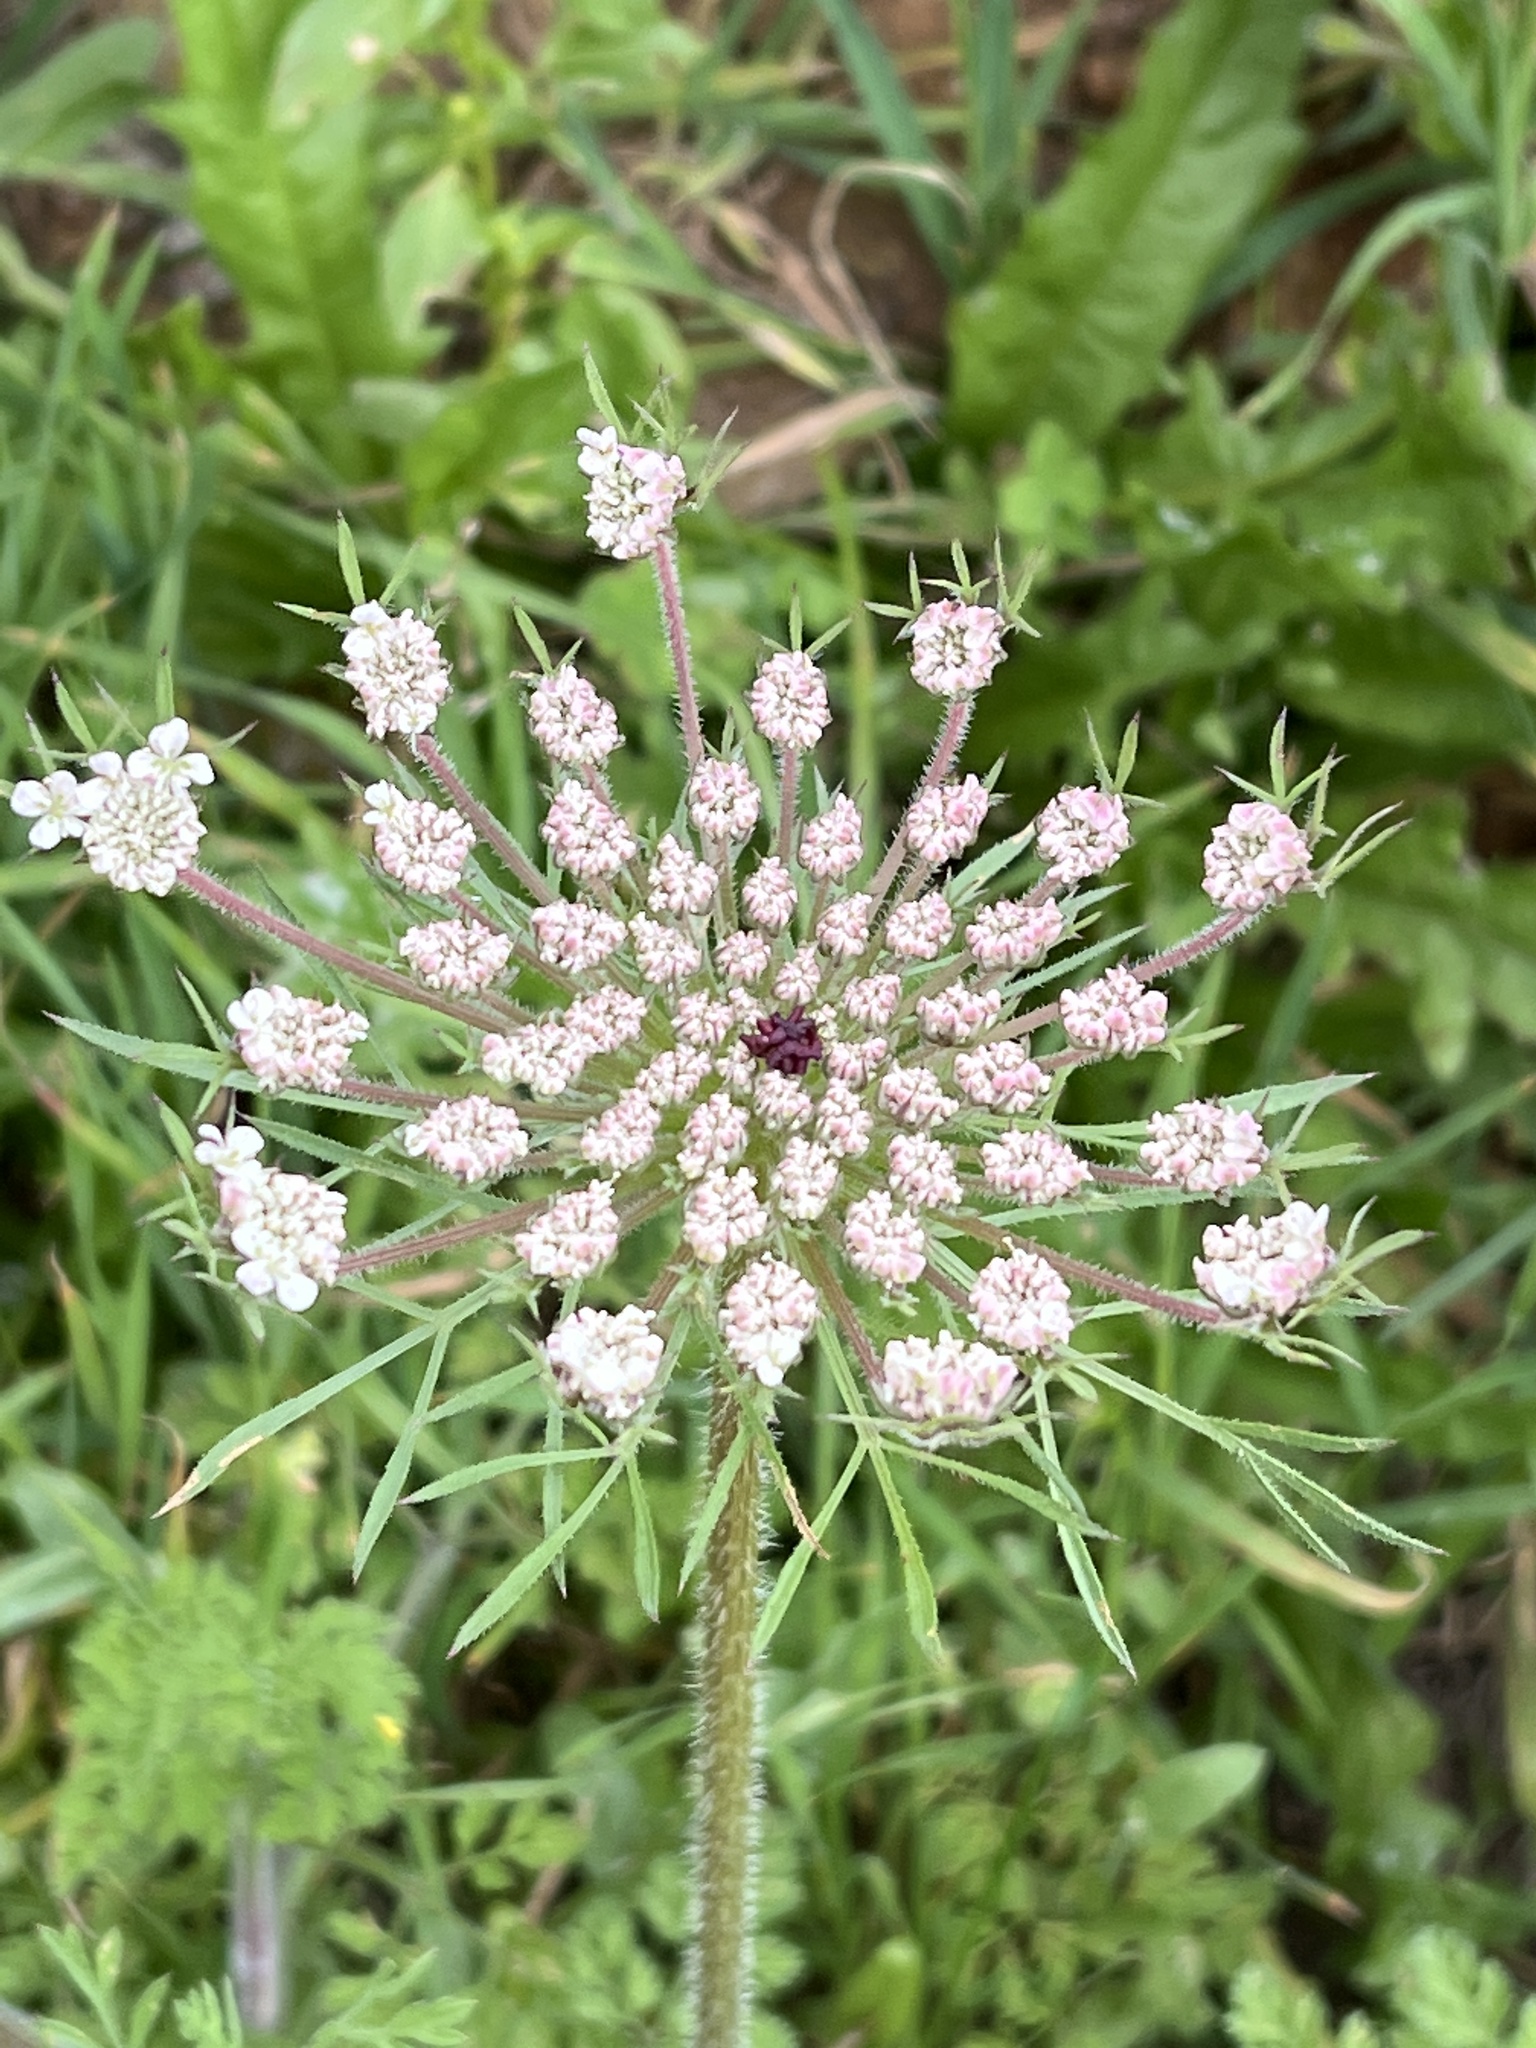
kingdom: Plantae
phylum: Tracheophyta
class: Magnoliopsida
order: Apiales
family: Apiaceae
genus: Daucus
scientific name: Daucus carota
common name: Wild carrot
